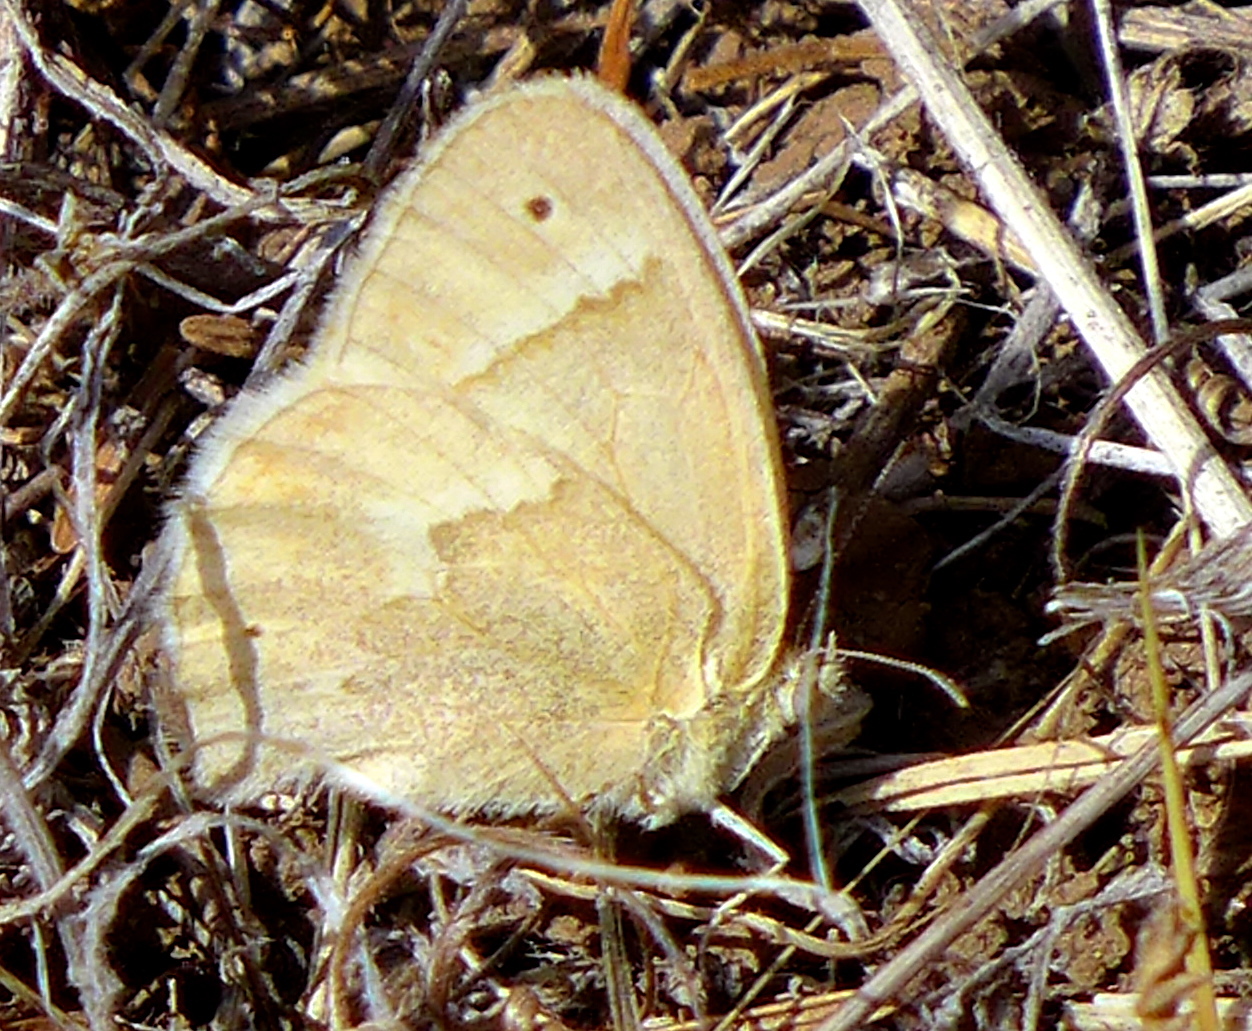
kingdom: Animalia
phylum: Arthropoda
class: Insecta
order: Lepidoptera
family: Nymphalidae
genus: Coenonympha
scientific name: Coenonympha california
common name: Common ringlet
